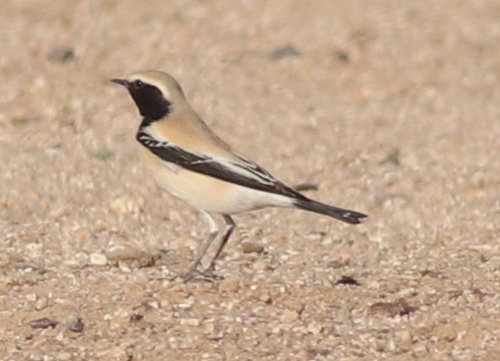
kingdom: Animalia
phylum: Chordata
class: Aves
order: Passeriformes
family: Muscicapidae
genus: Oenanthe
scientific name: Oenanthe deserti
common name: Desert wheatear
